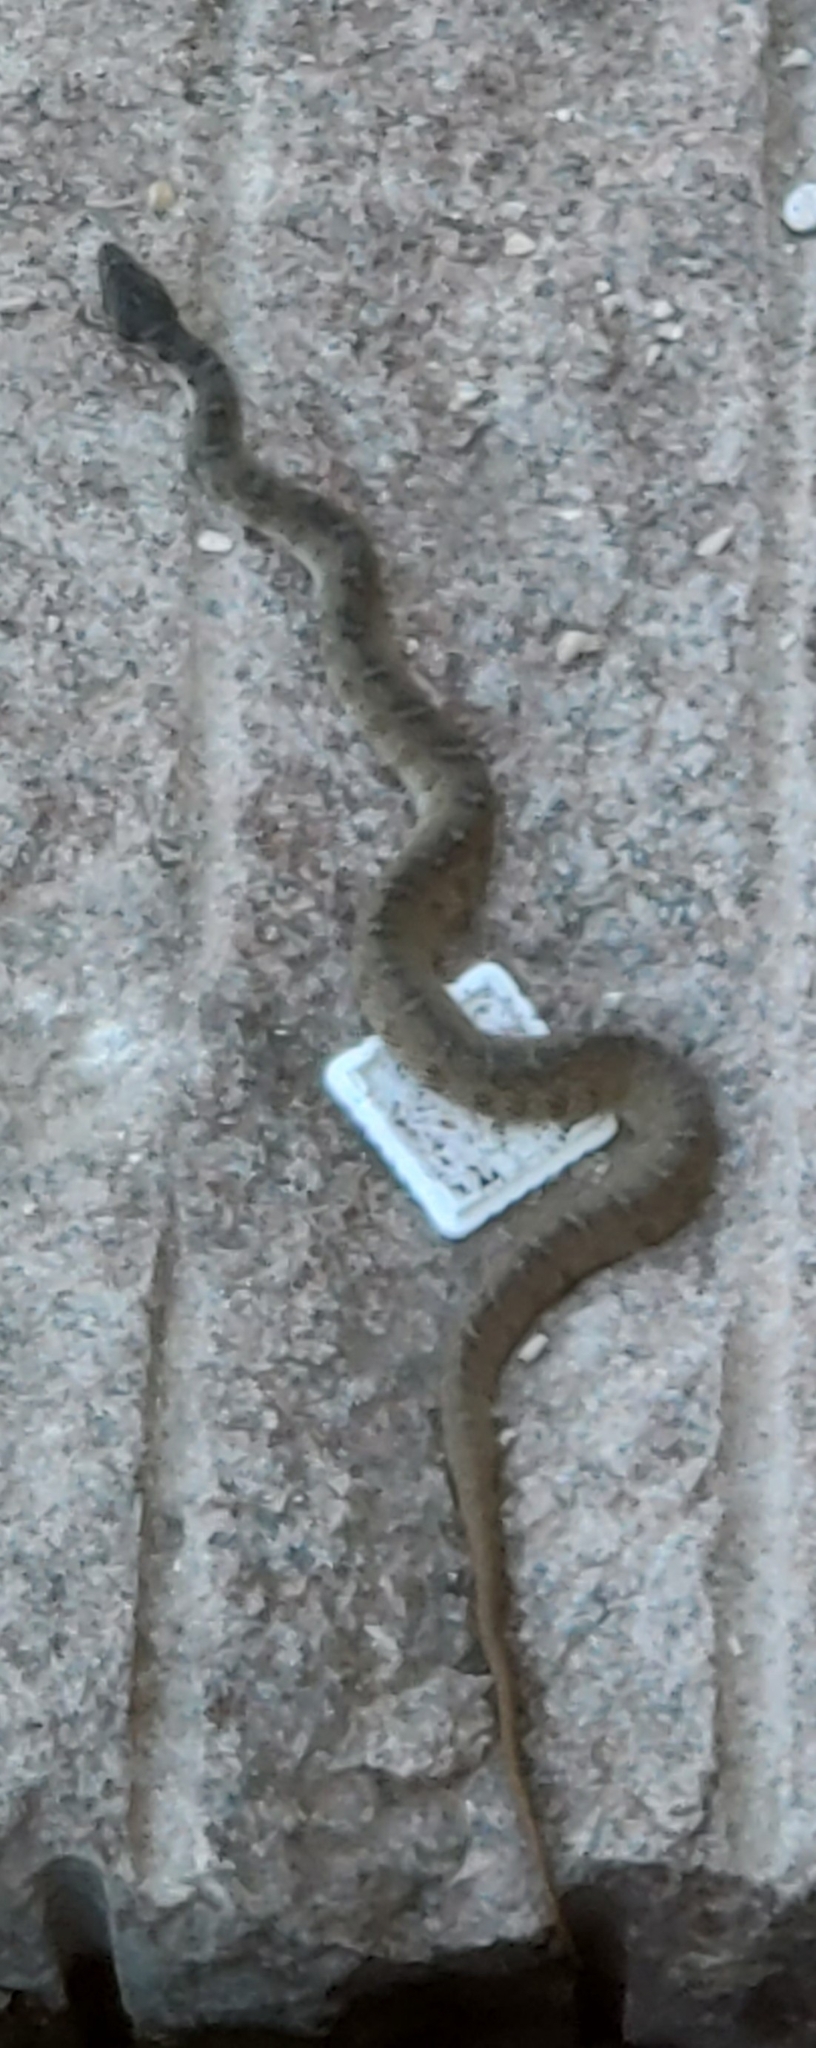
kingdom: Animalia
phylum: Chordata
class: Squamata
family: Colubridae
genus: Nerodia
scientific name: Nerodia erythrogaster
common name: Plainbelly water snake
